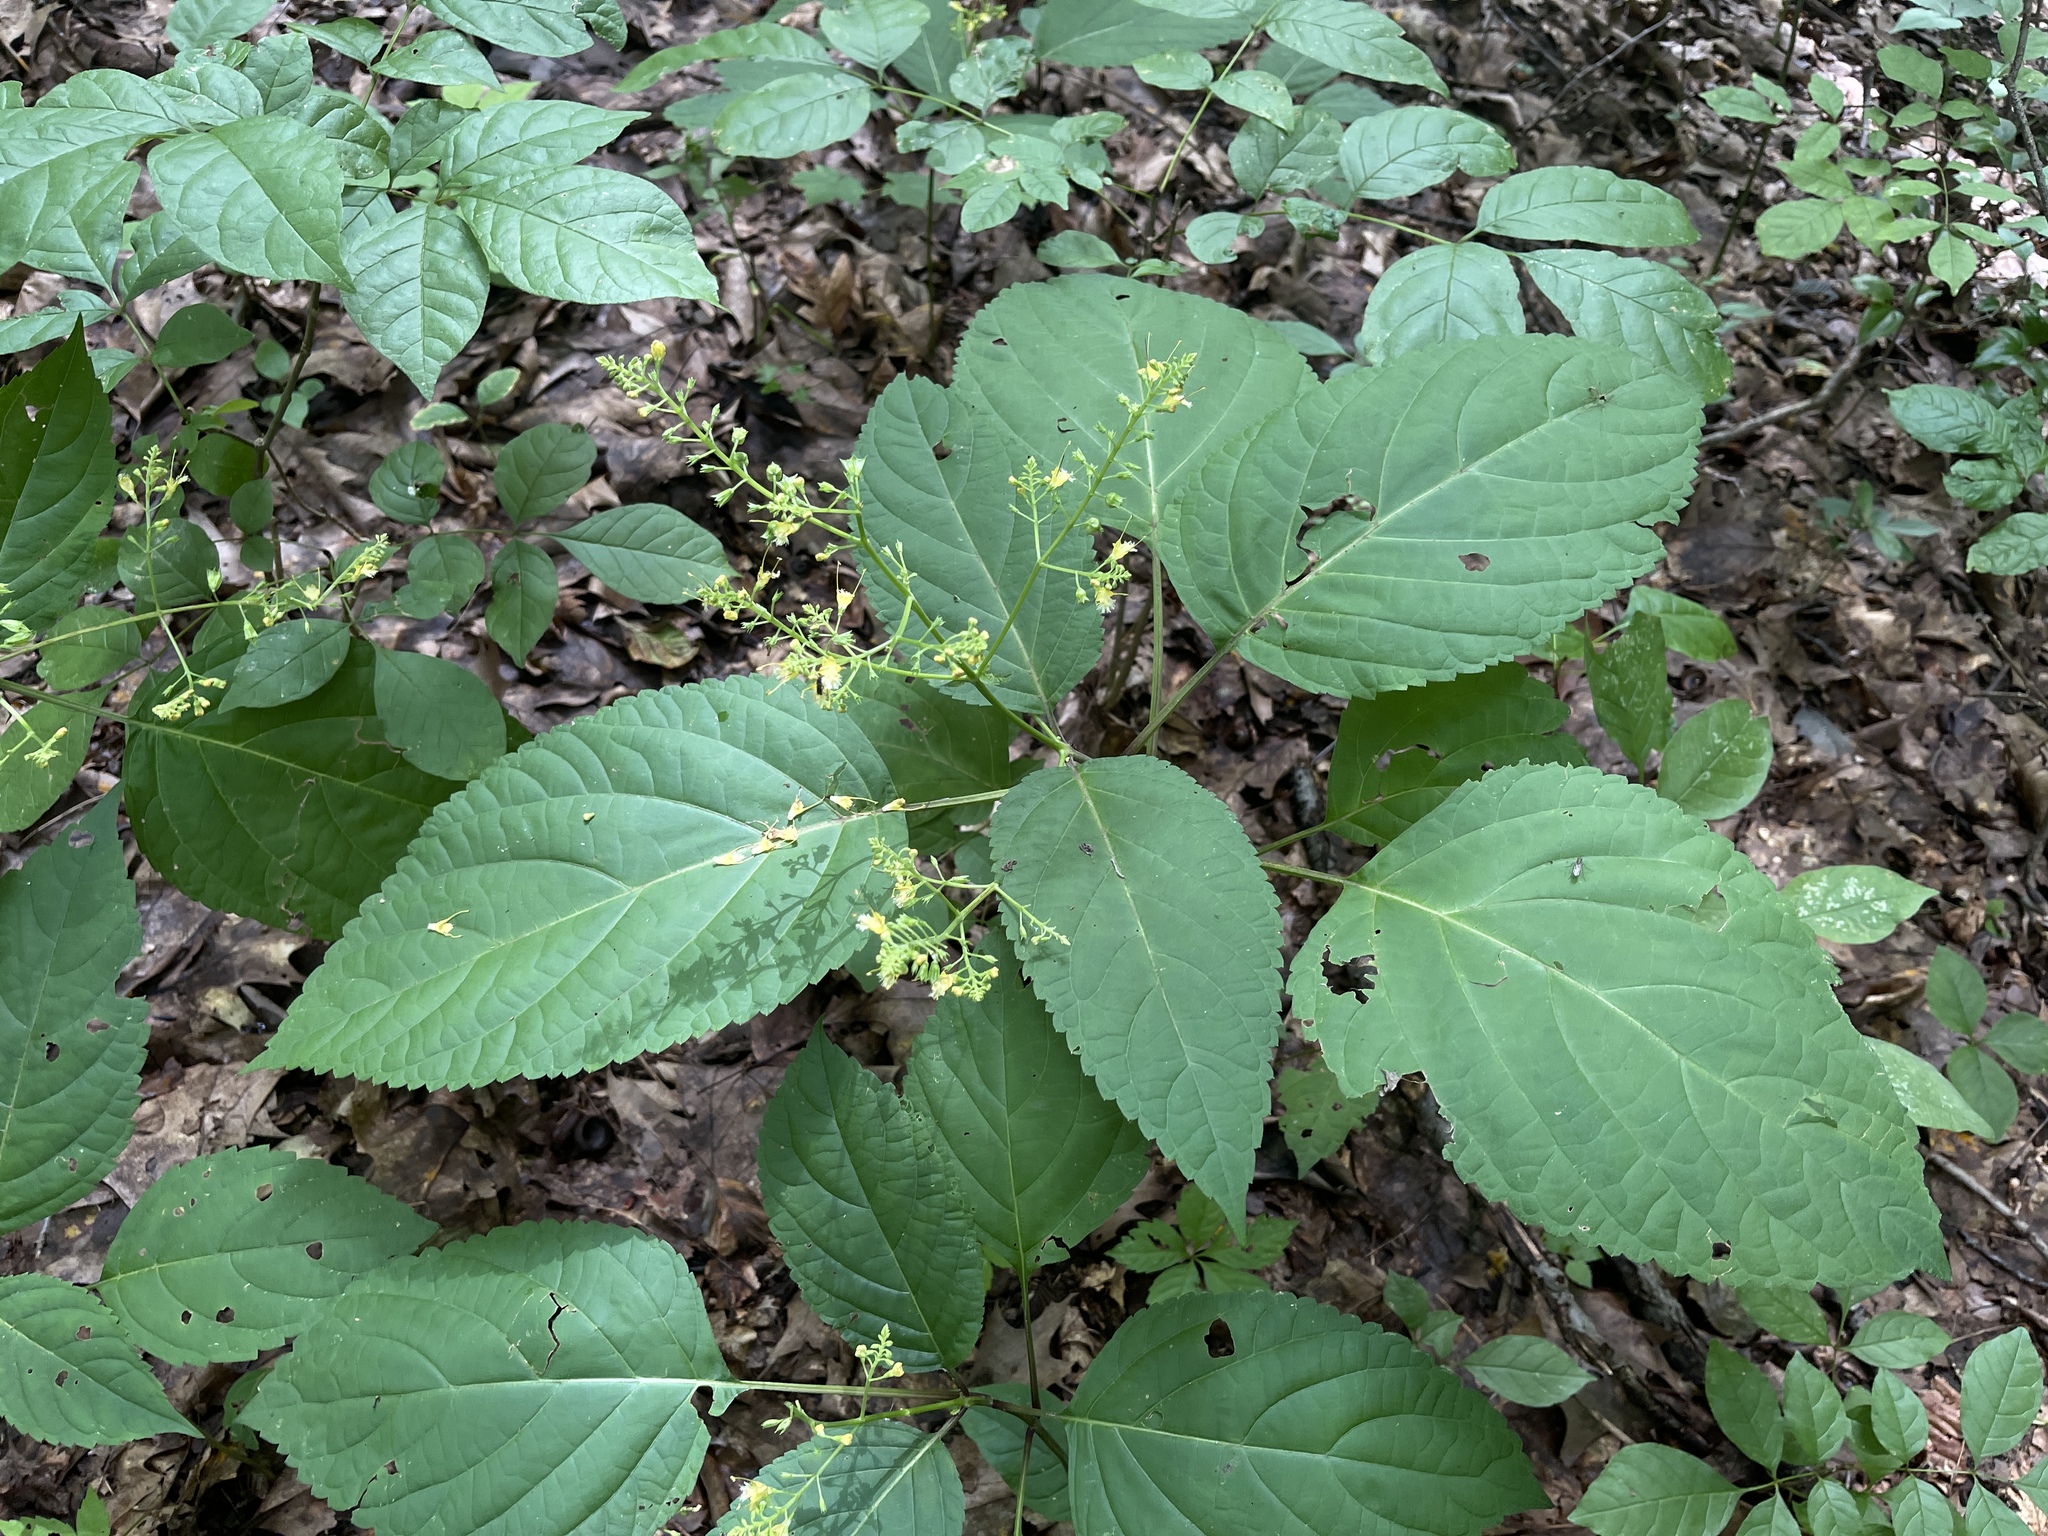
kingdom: Plantae
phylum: Tracheophyta
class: Magnoliopsida
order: Lamiales
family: Lamiaceae
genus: Collinsonia
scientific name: Collinsonia canadensis
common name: Northern horsebalm
